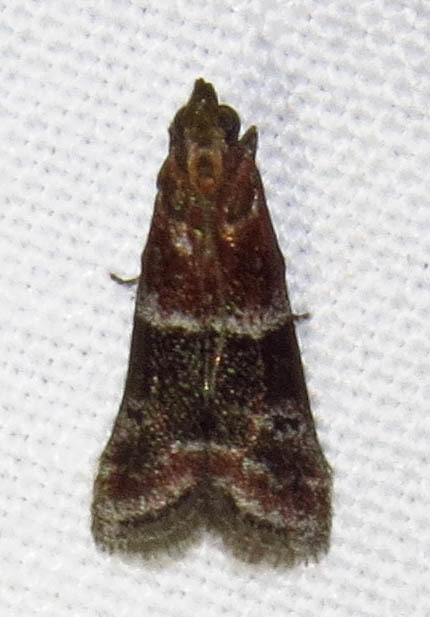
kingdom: Animalia
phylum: Arthropoda
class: Insecta
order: Lepidoptera
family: Pyralidae
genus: Moodna
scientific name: Moodna ostrinella
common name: Darker moodna moth
